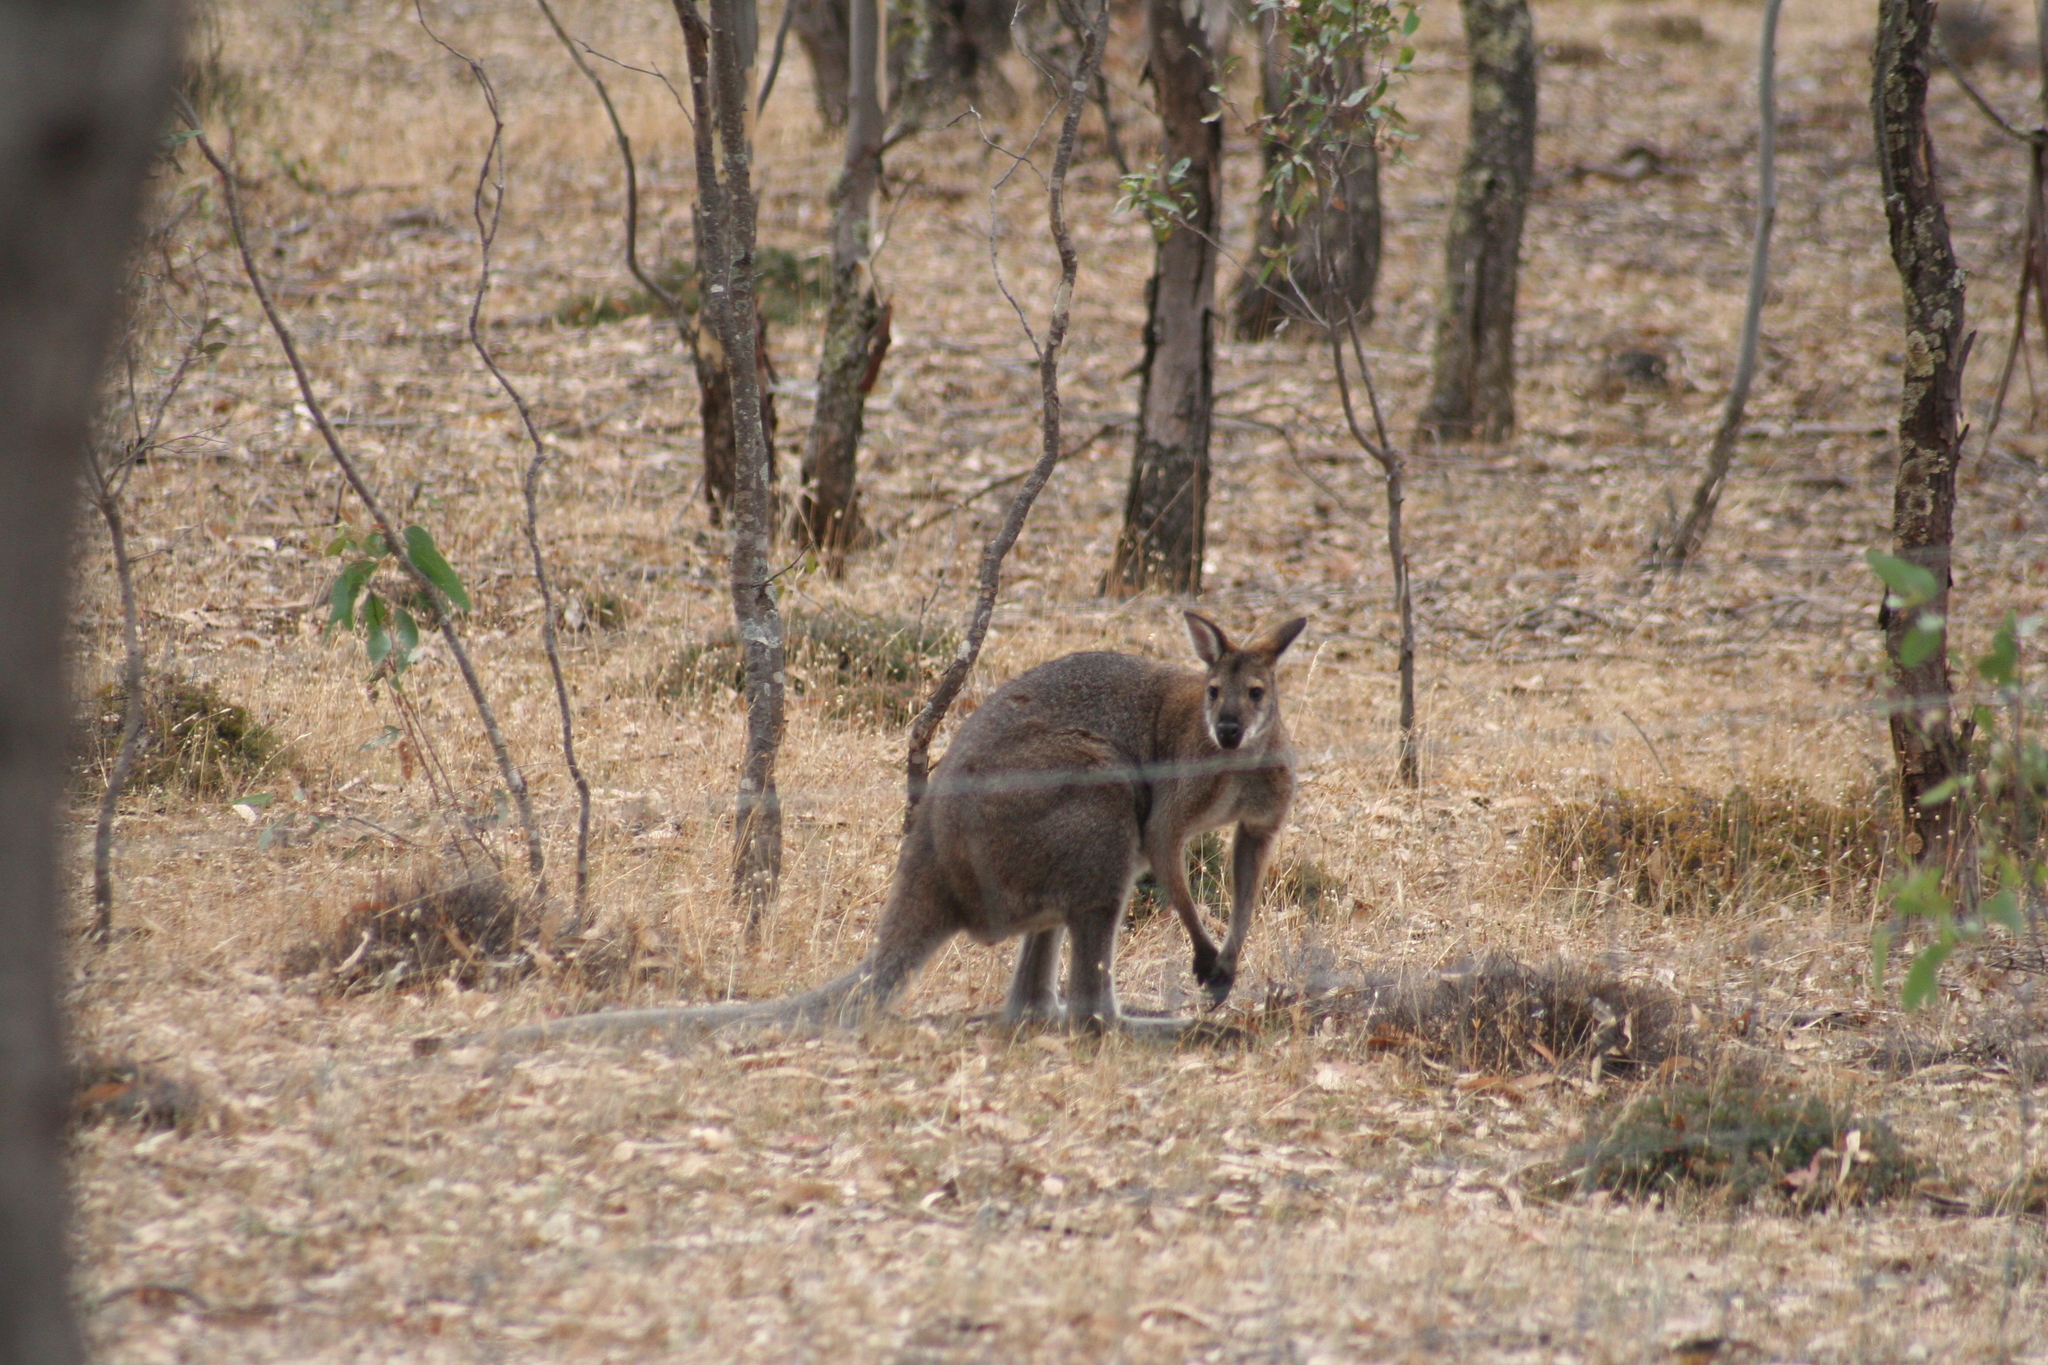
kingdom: Animalia
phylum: Chordata
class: Mammalia
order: Diprotodontia
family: Macropodidae
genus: Notamacropus
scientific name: Notamacropus rufogriseus
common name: Red-necked wallaby
